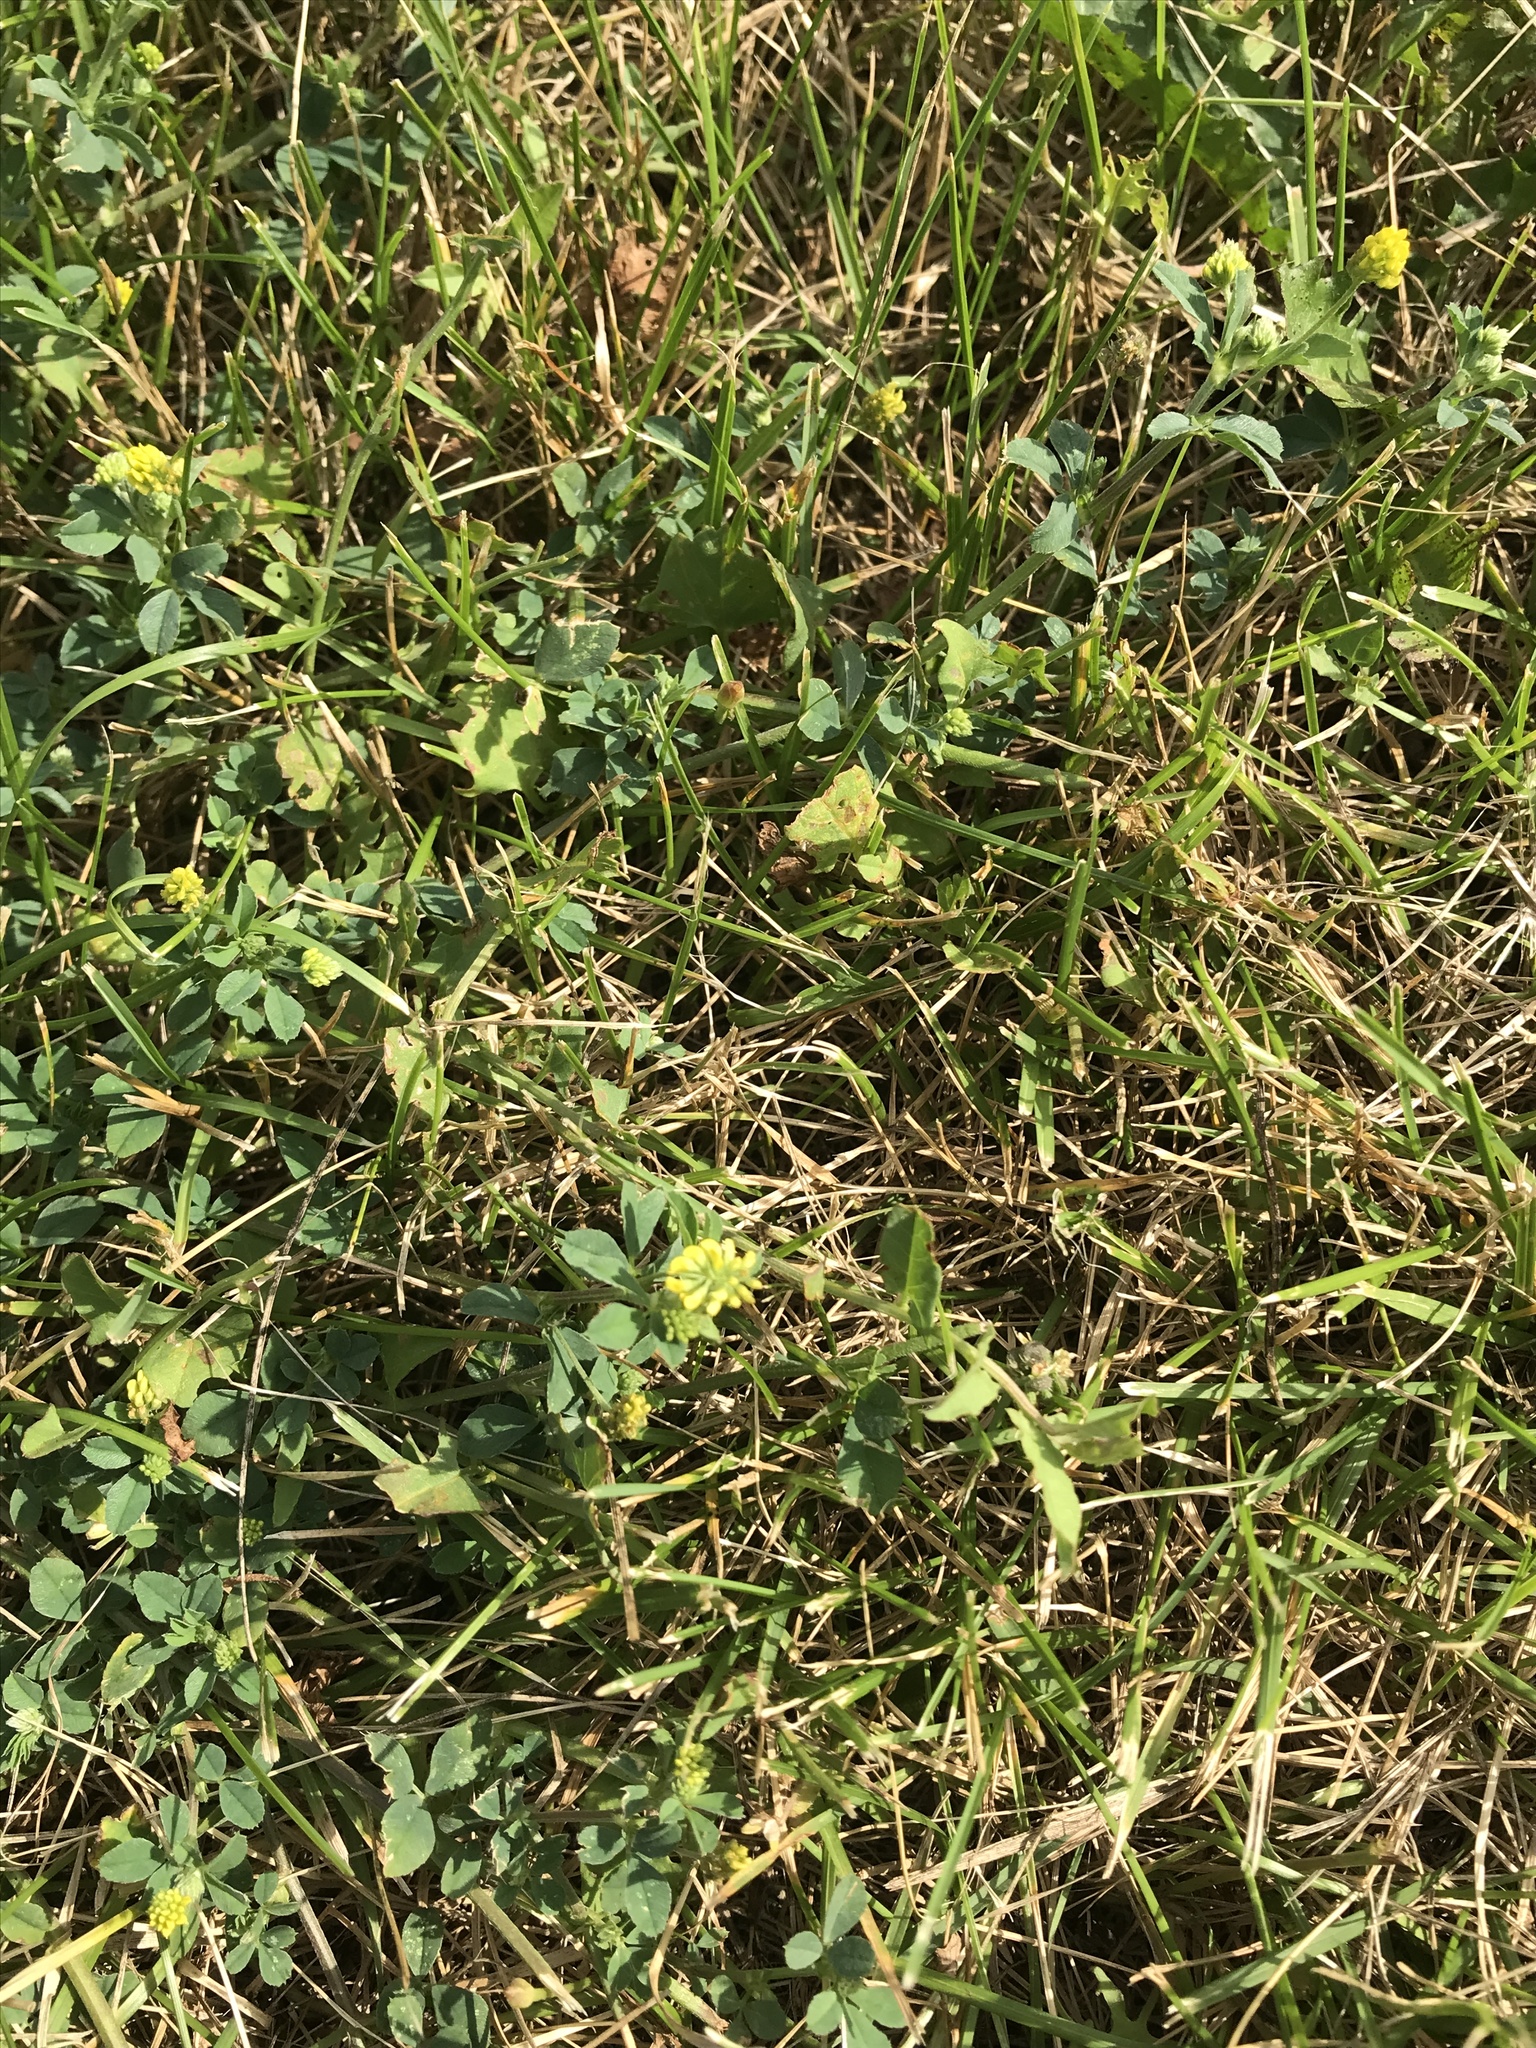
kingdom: Plantae
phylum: Tracheophyta
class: Magnoliopsida
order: Fabales
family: Fabaceae
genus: Medicago
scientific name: Medicago lupulina
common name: Black medick
